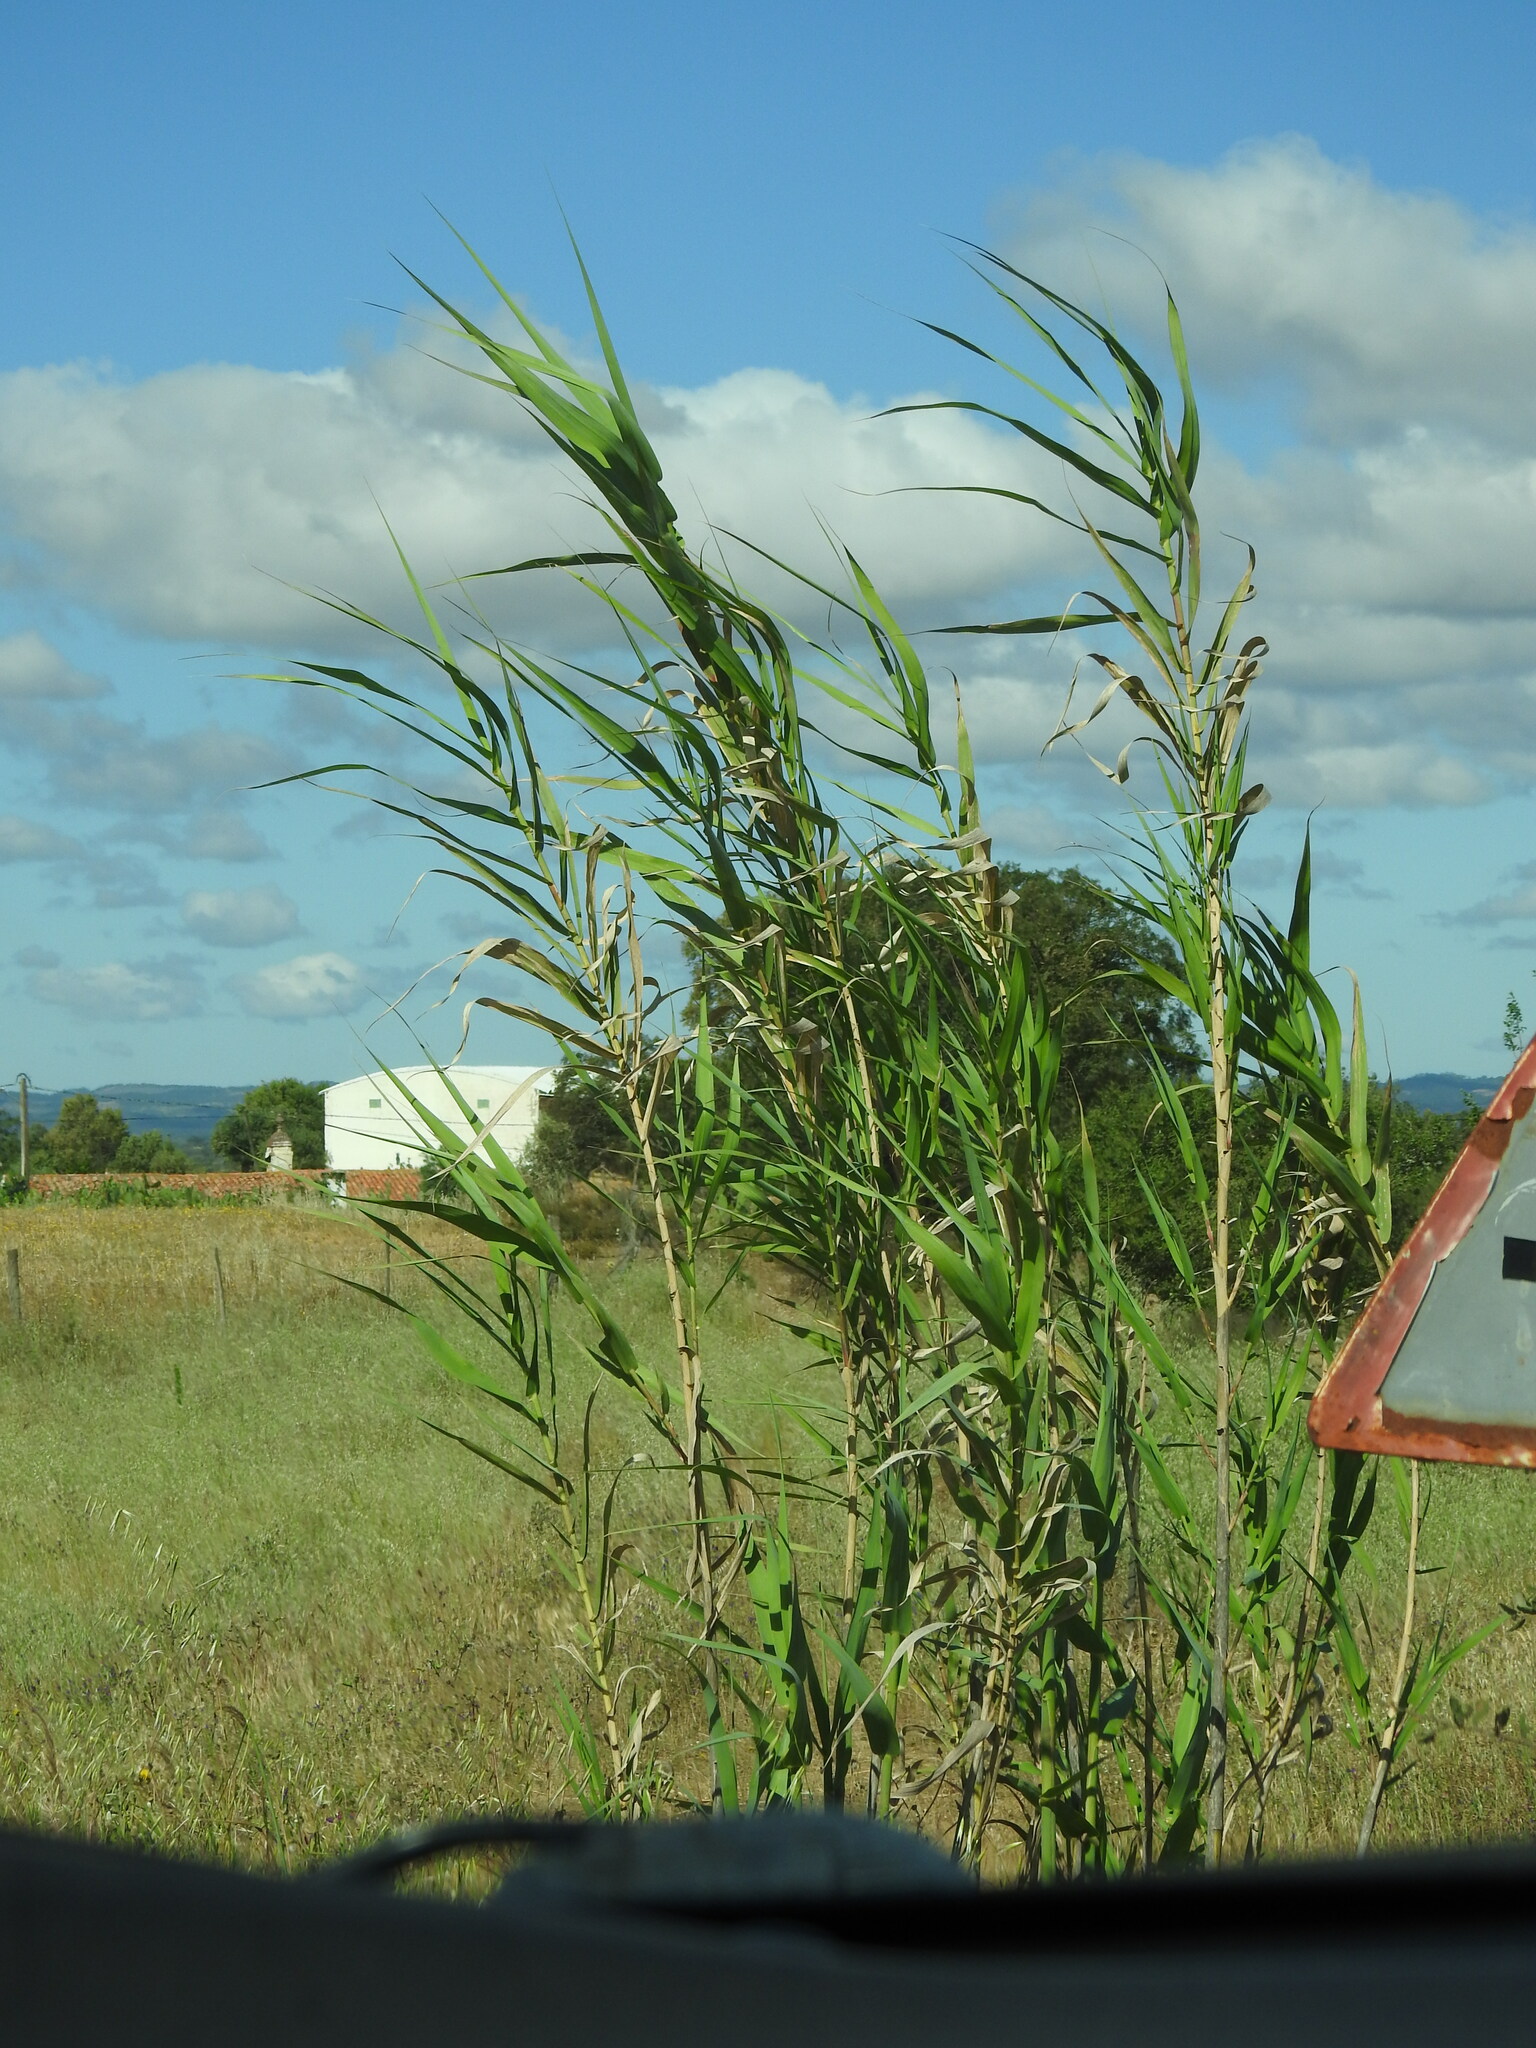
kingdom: Plantae
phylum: Tracheophyta
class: Liliopsida
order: Poales
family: Poaceae
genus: Arundo
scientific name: Arundo donax
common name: Giant reed
